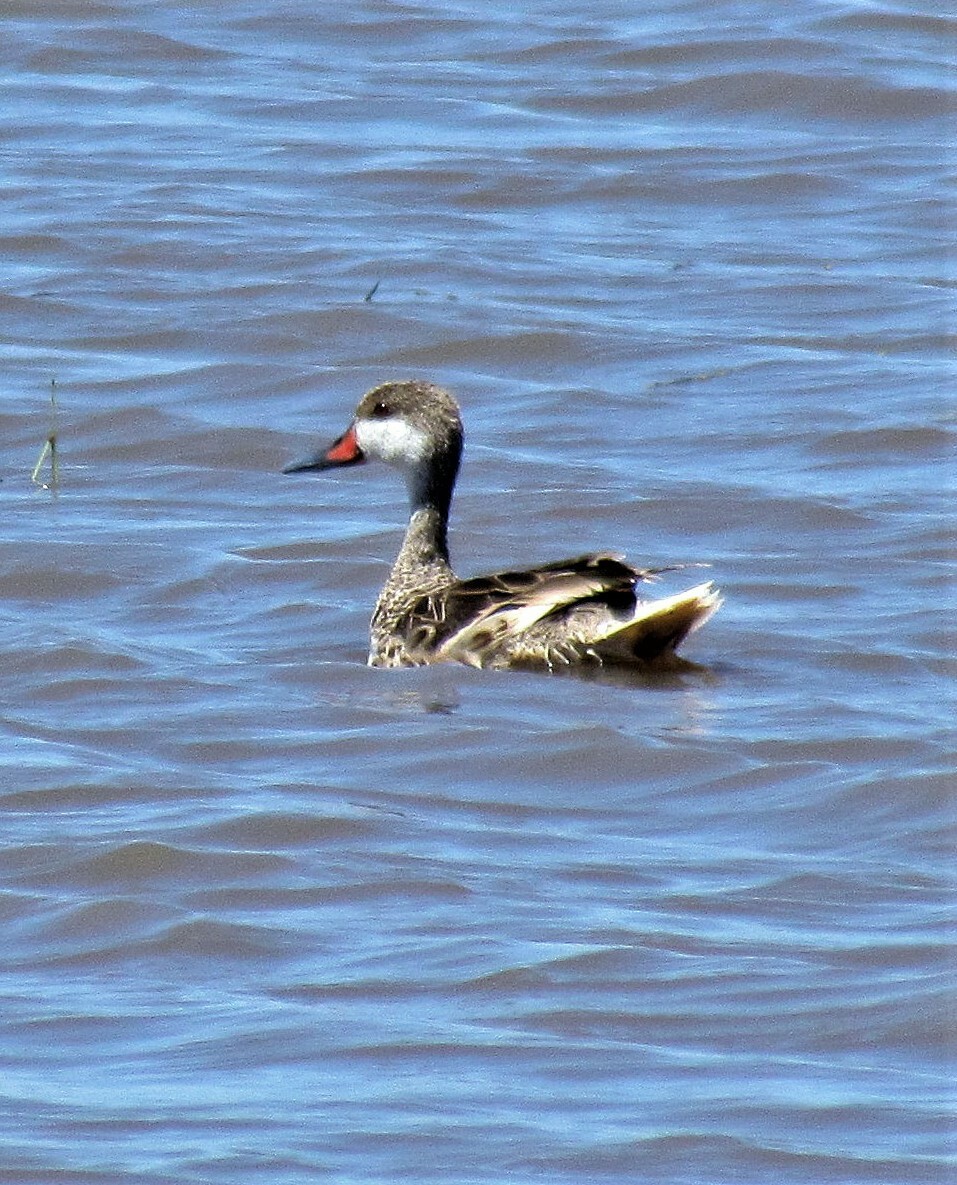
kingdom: Animalia
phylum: Chordata
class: Aves
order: Anseriformes
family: Anatidae
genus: Anas
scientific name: Anas bahamensis
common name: White-cheeked pintail
